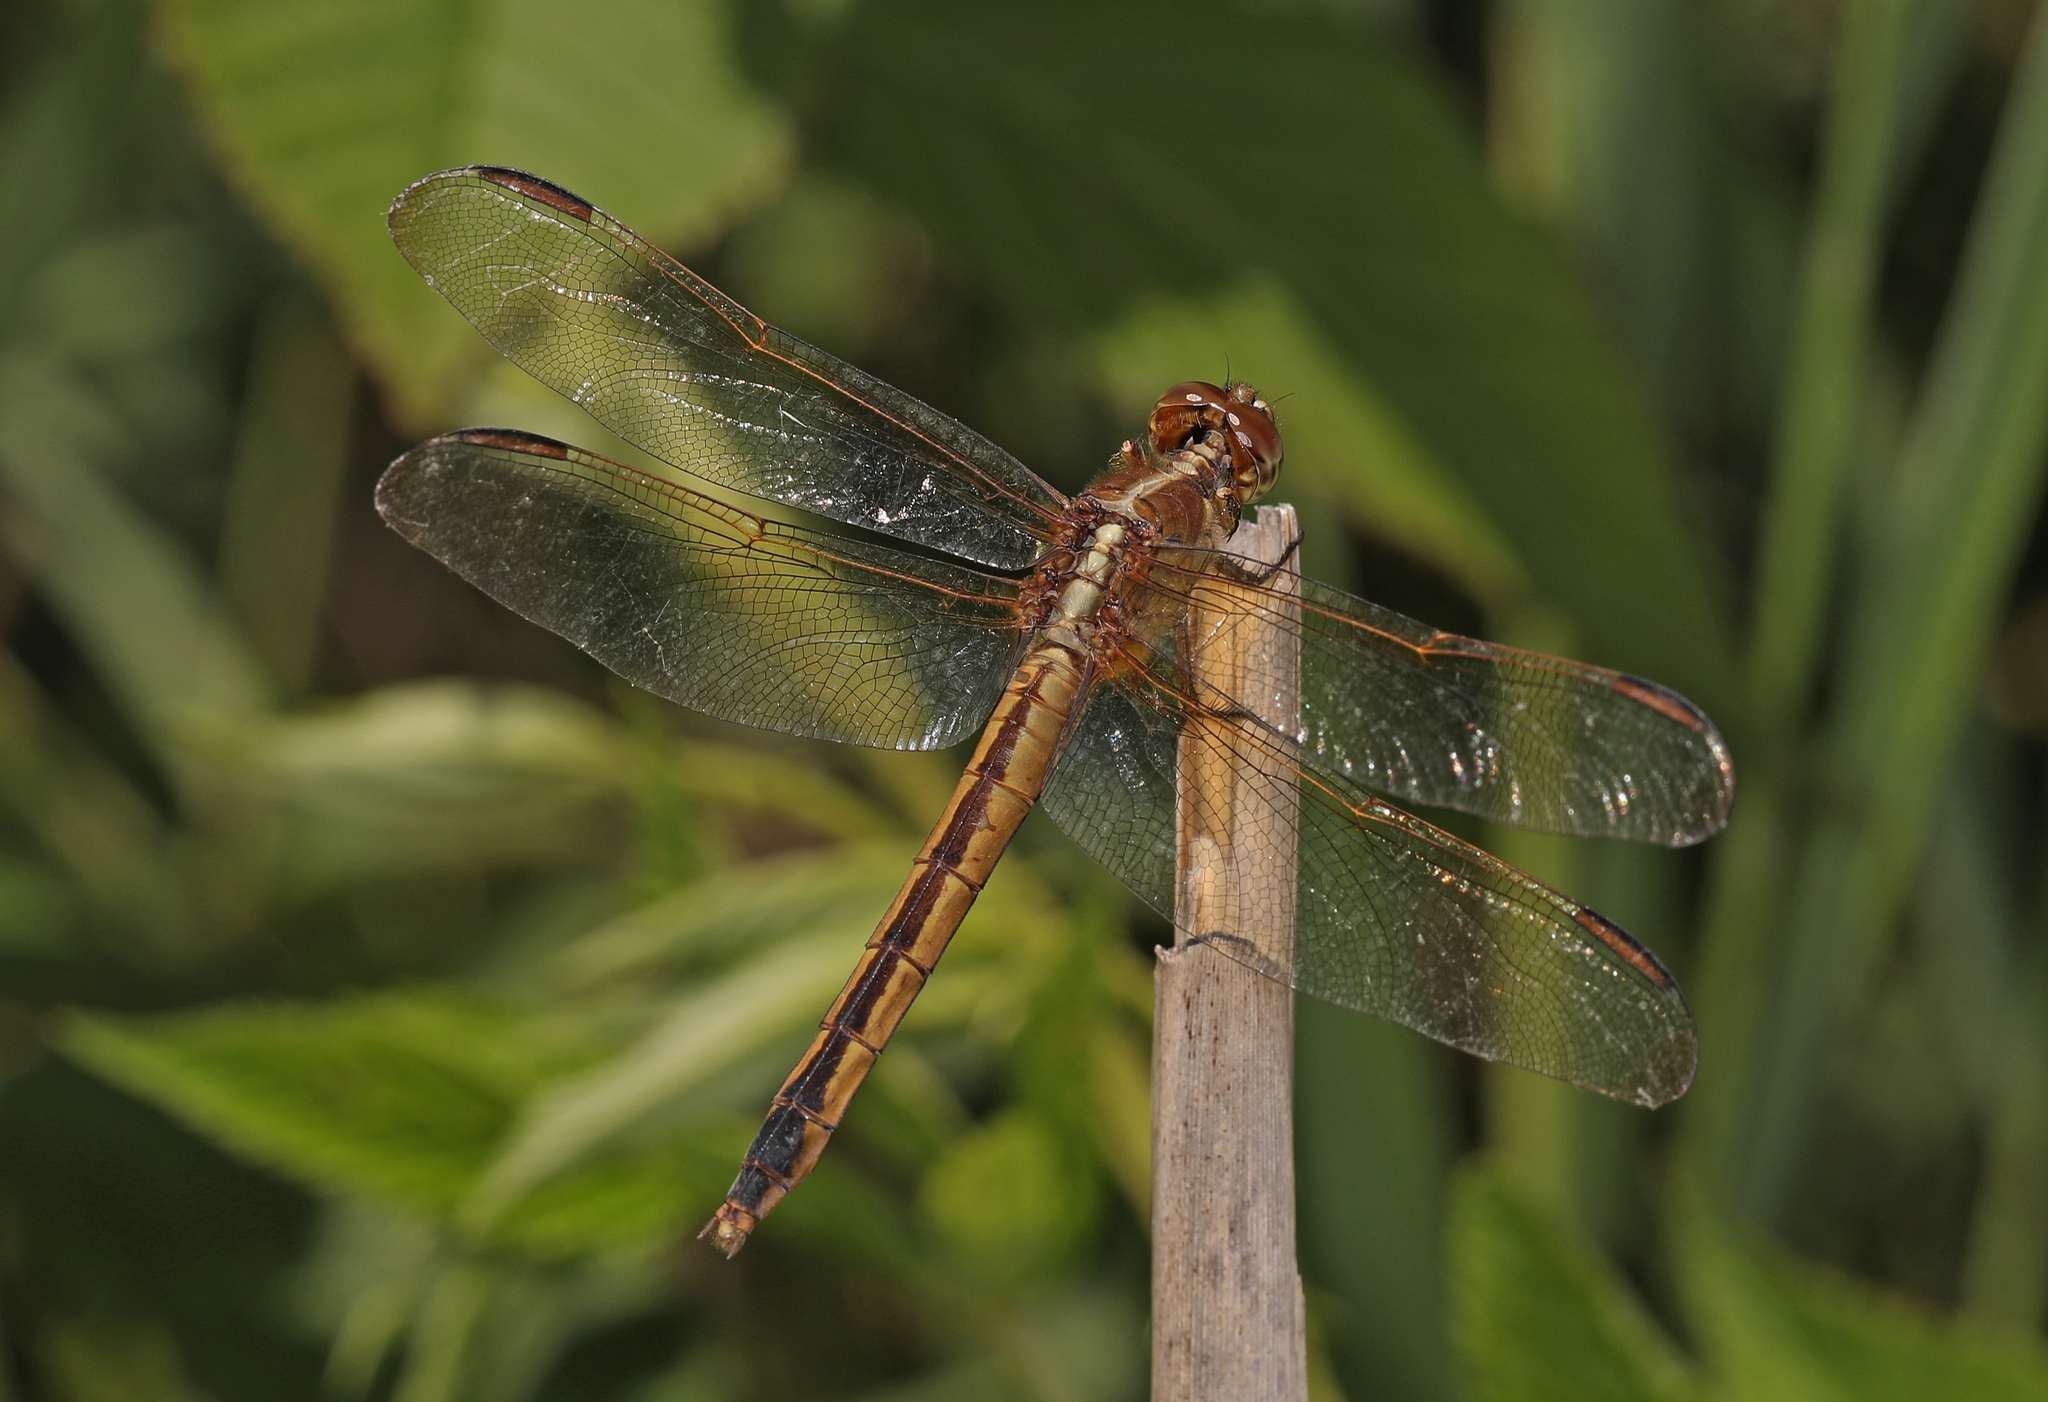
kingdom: Animalia
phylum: Arthropoda
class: Insecta
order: Odonata
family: Libellulidae
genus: Libellula
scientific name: Libellula needhami
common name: Needham's skimmer
